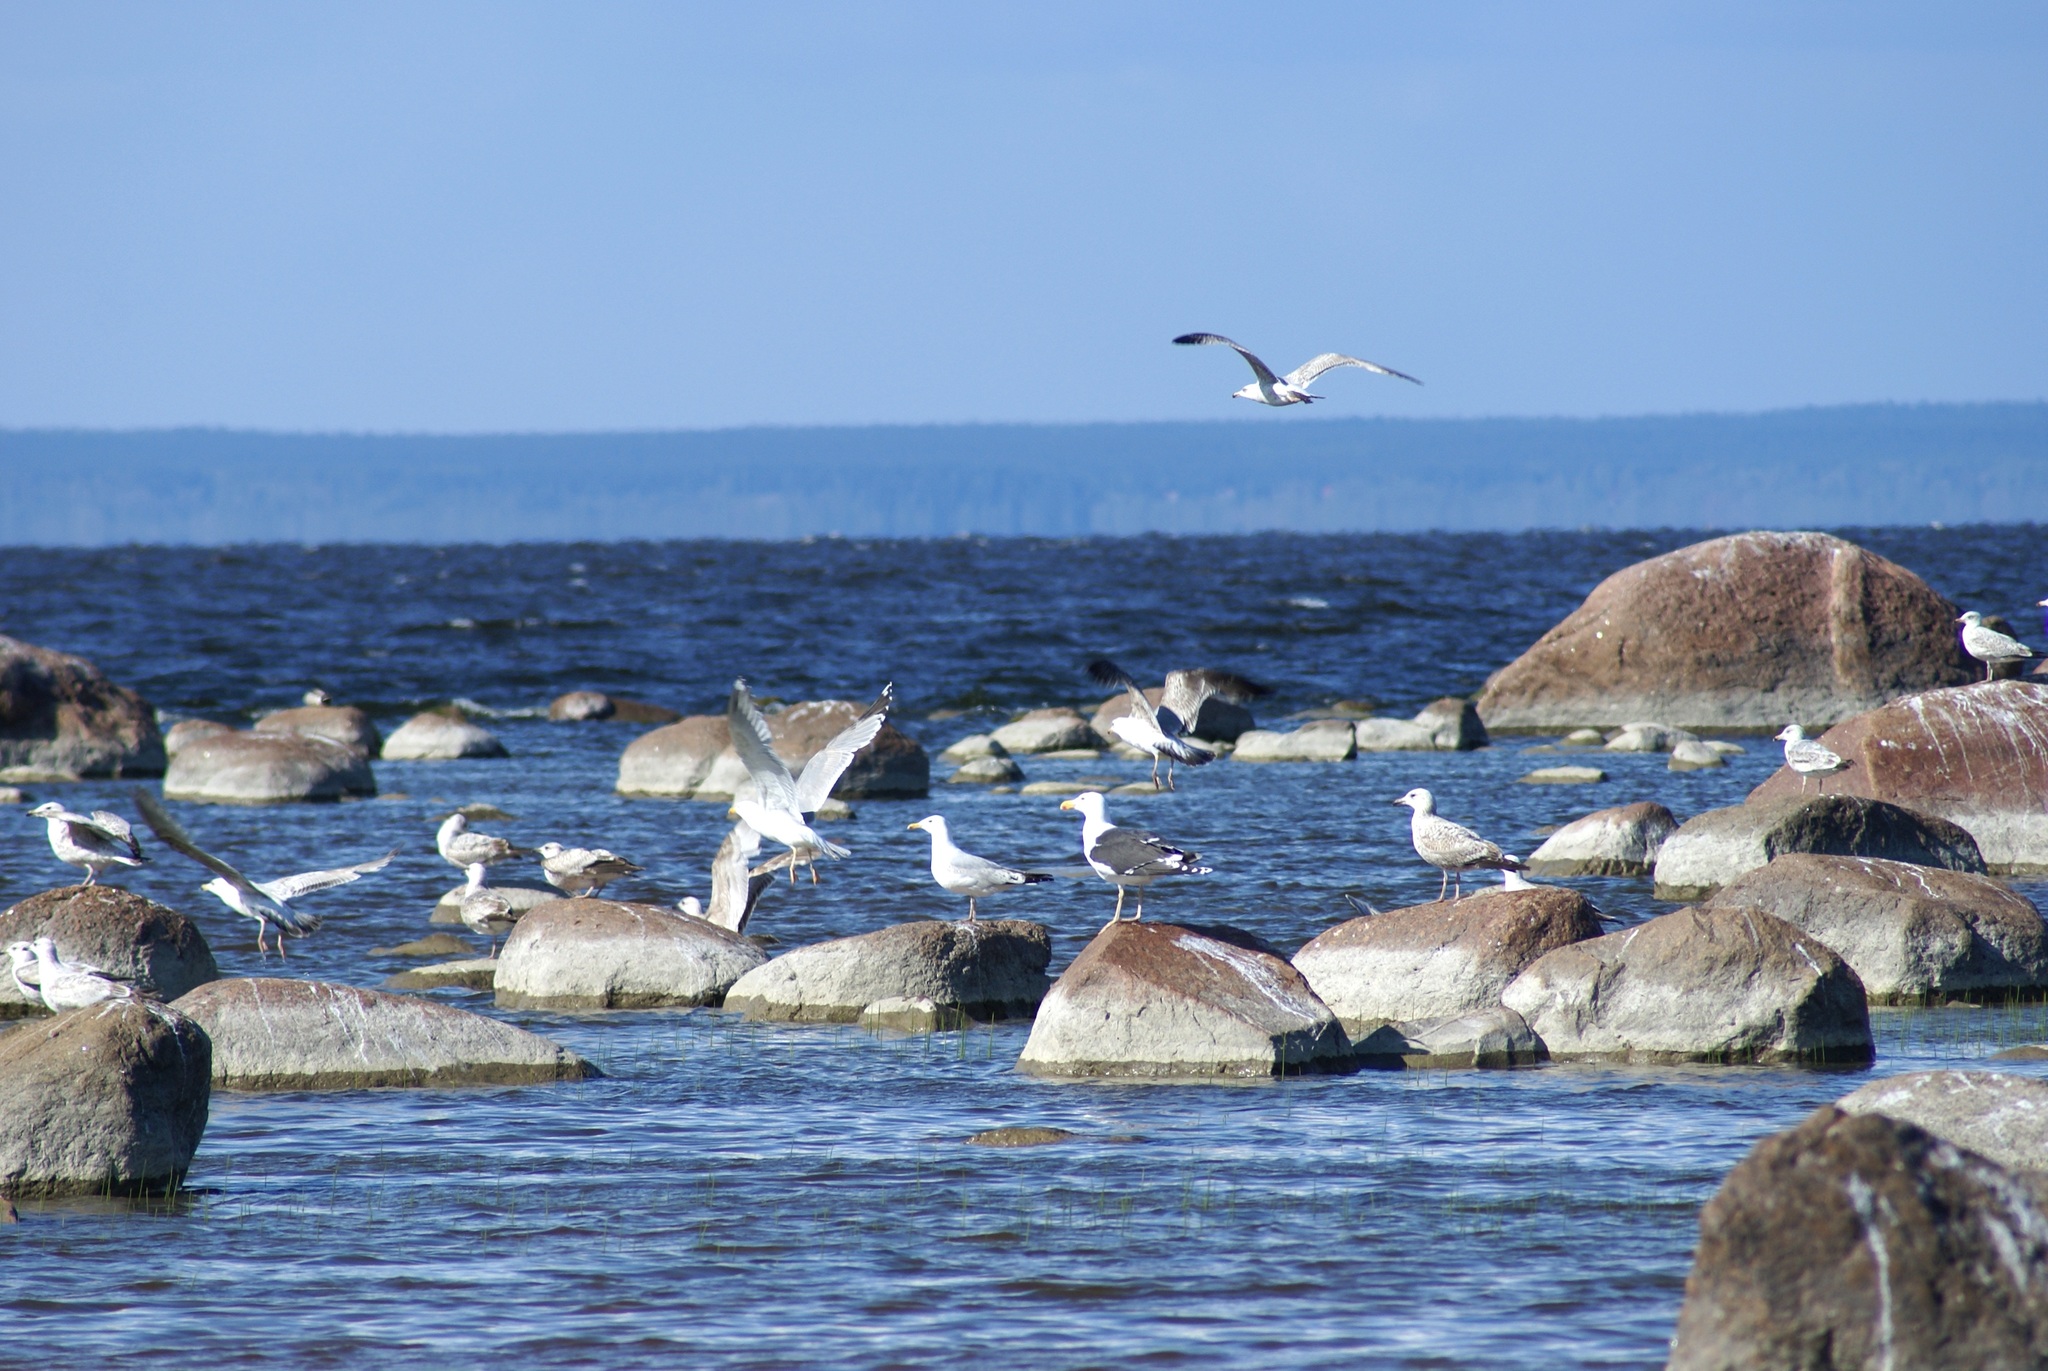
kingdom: Animalia
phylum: Chordata
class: Aves
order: Charadriiformes
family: Laridae
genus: Larus
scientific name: Larus marinus
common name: Great black-backed gull
